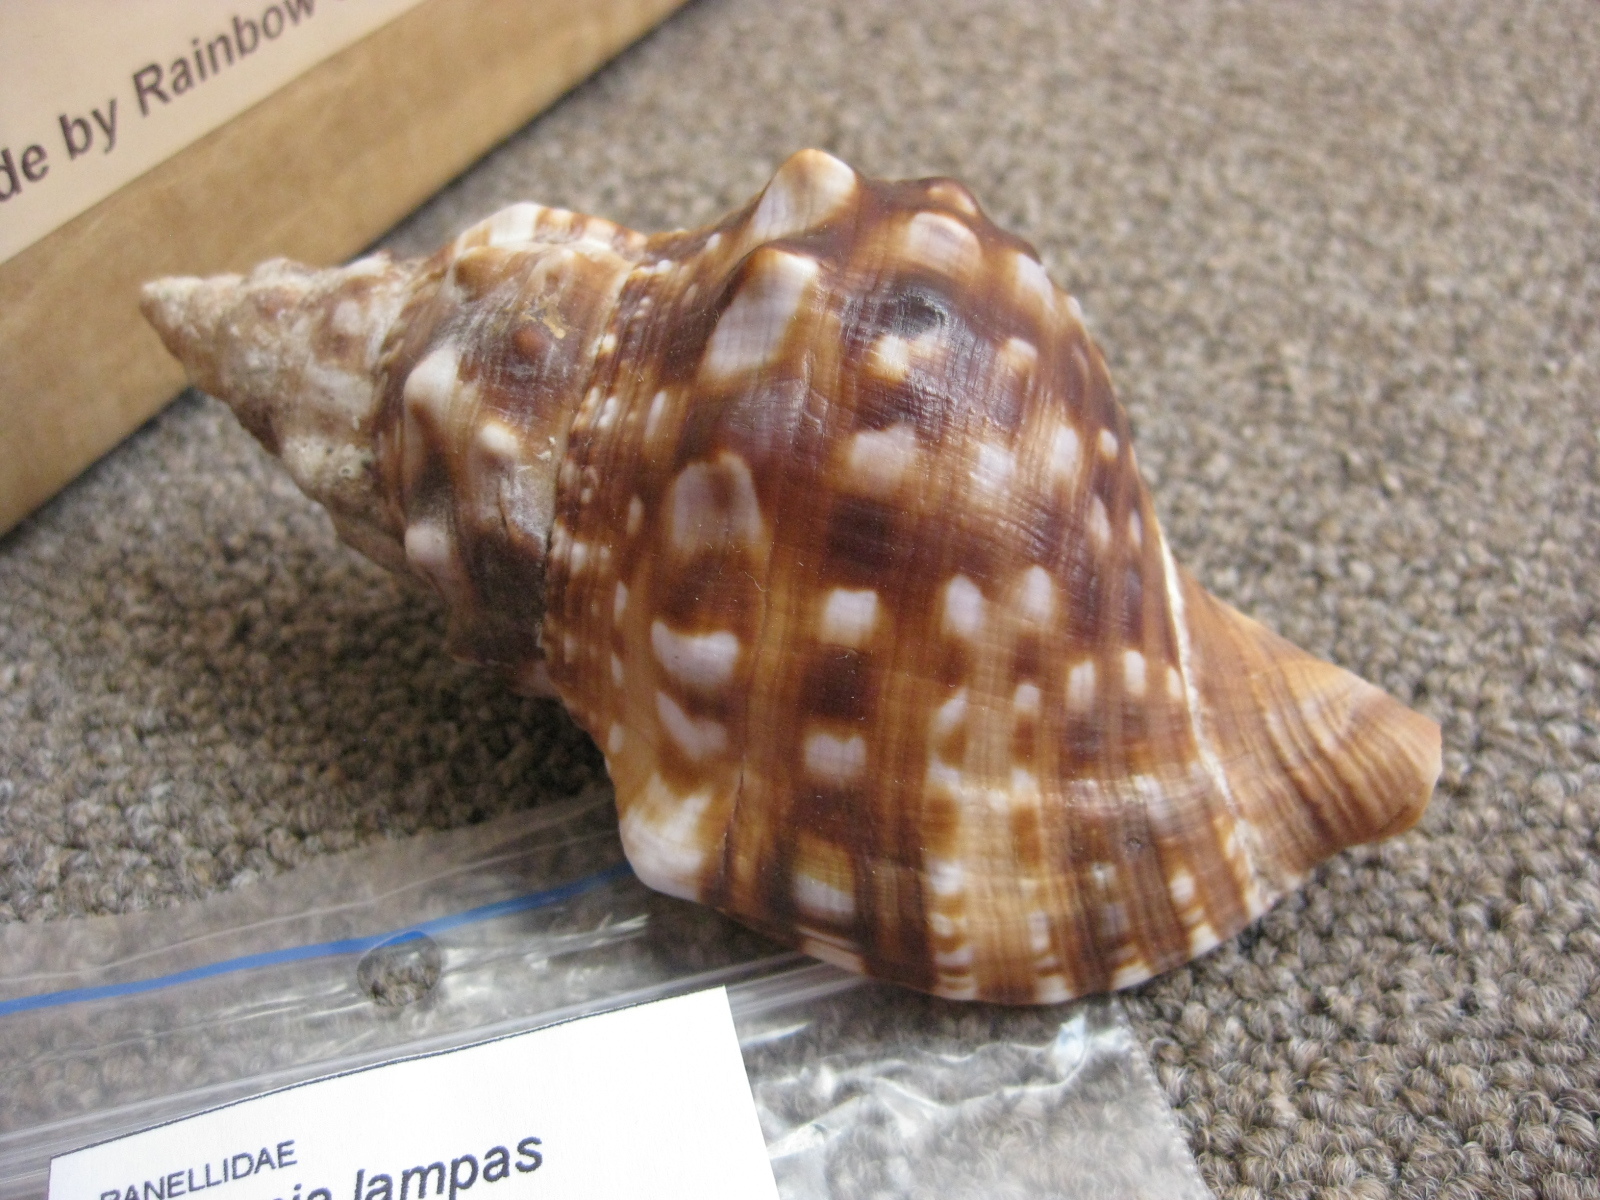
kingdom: Animalia
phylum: Mollusca
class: Gastropoda
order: Littorinimorpha
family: Charoniidae
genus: Charonia
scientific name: Charonia lampas
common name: Knobbed triton
